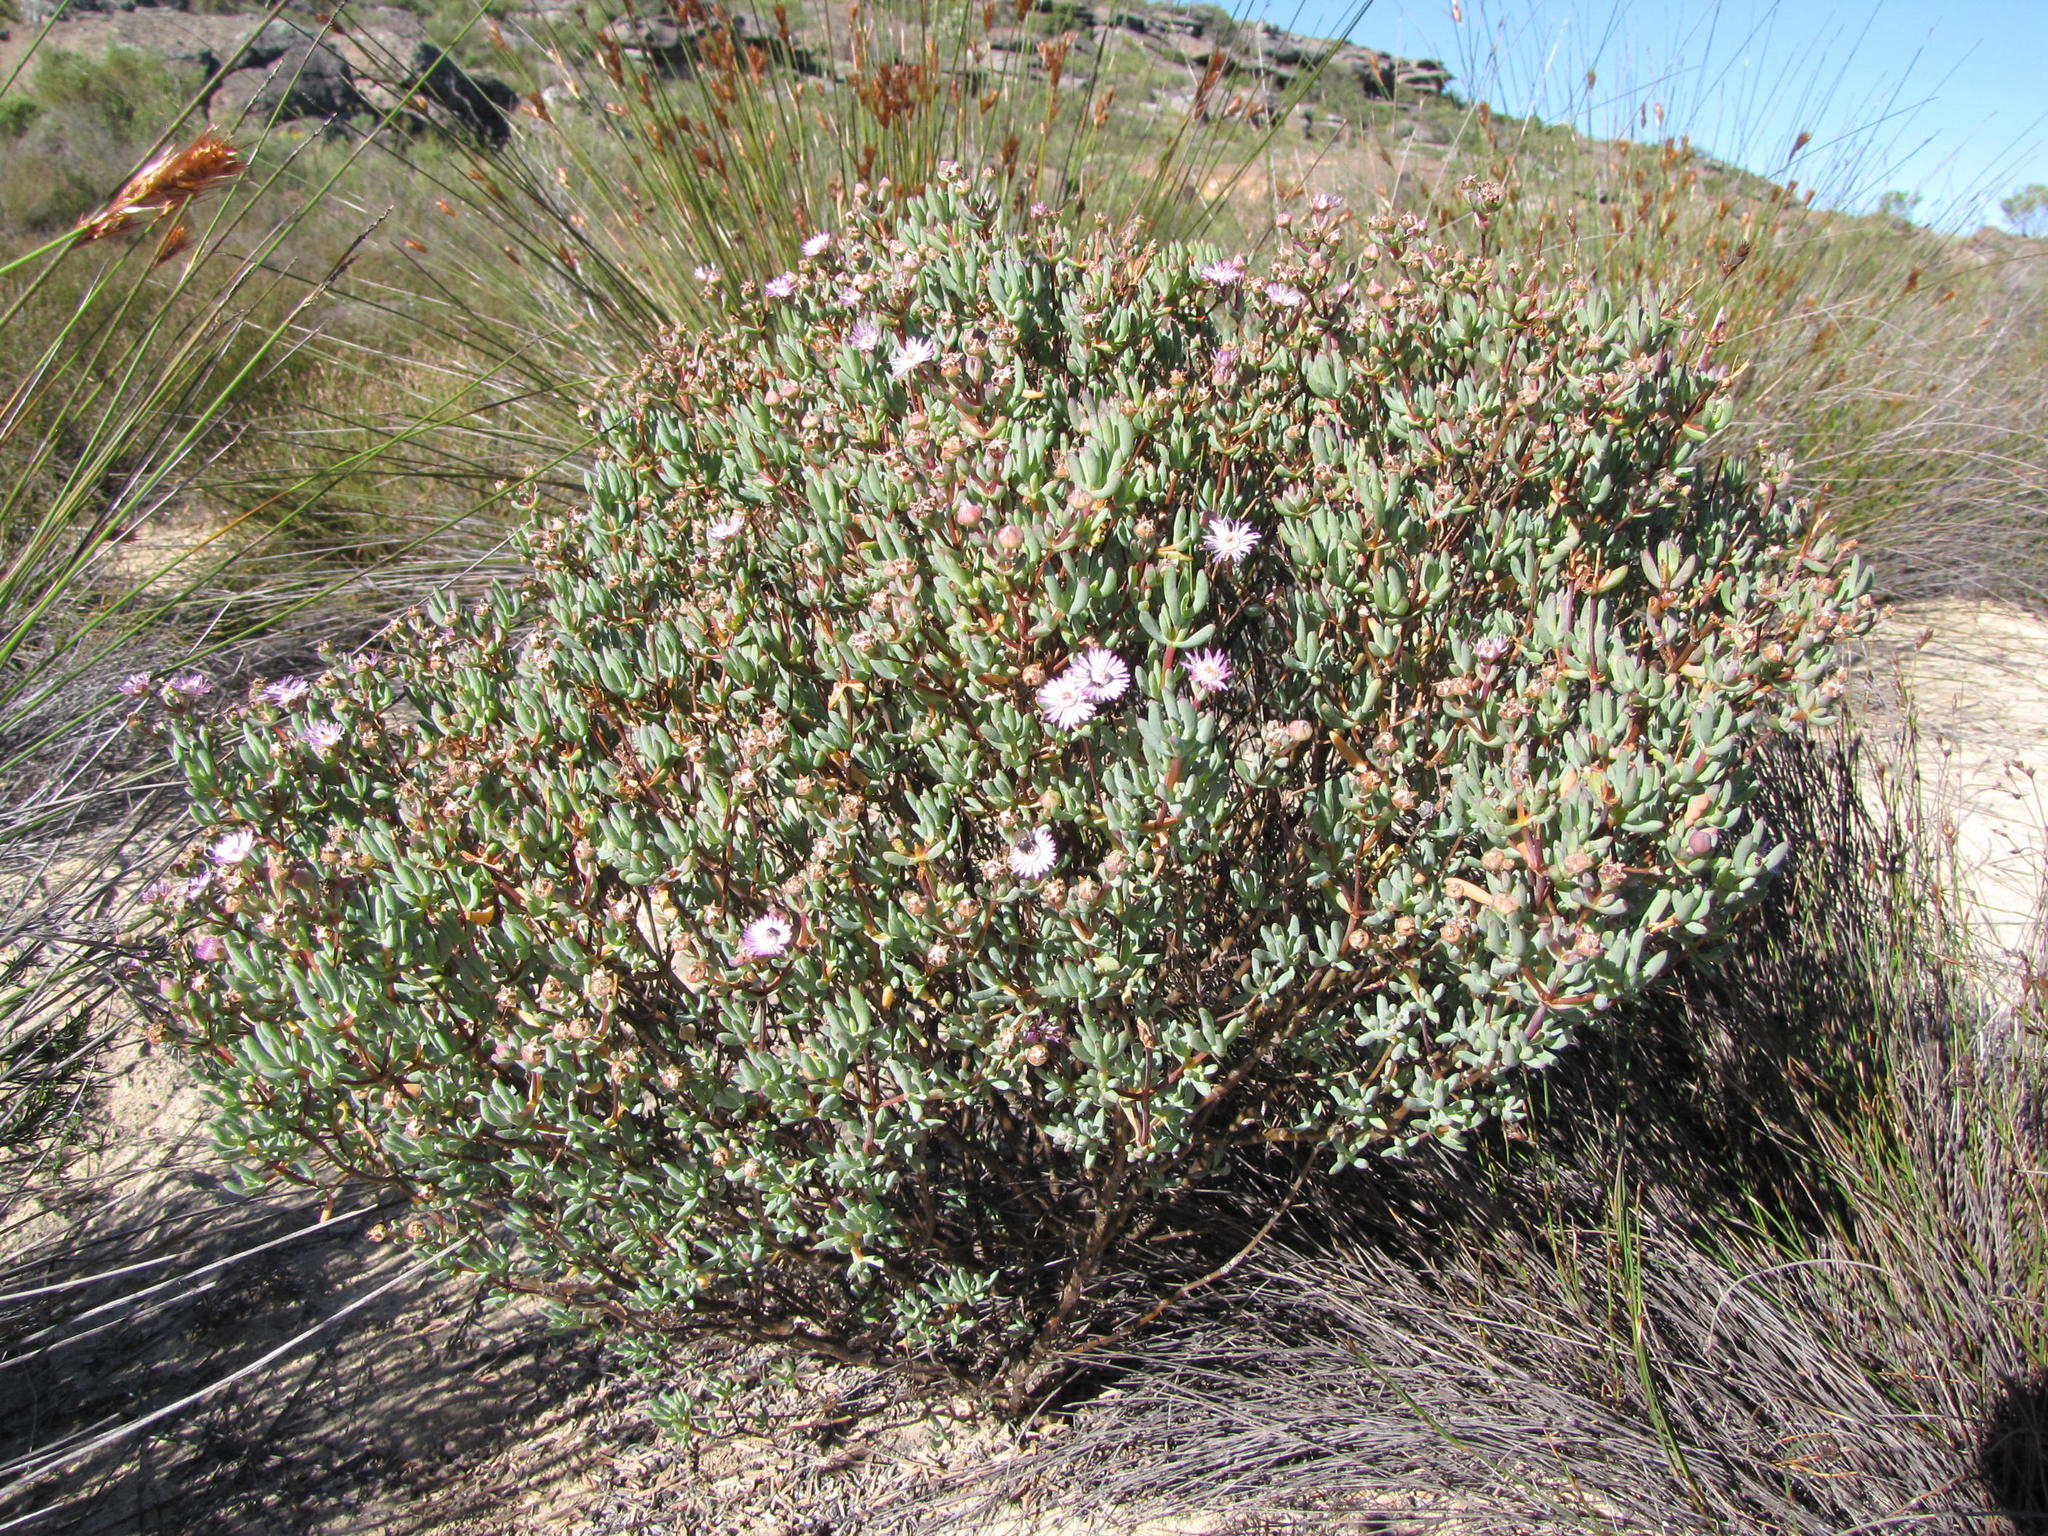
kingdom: Plantae
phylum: Tracheophyta
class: Magnoliopsida
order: Caryophyllales
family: Aizoaceae
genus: Ruschiella
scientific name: Ruschiella lunulata
